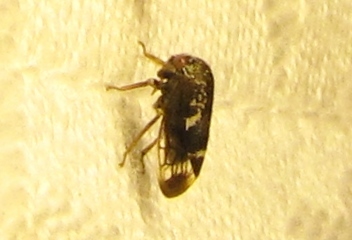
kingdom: Animalia
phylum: Arthropoda
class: Insecta
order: Hemiptera
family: Membracidae
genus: Ophiderma
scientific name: Ophiderma salamandra
